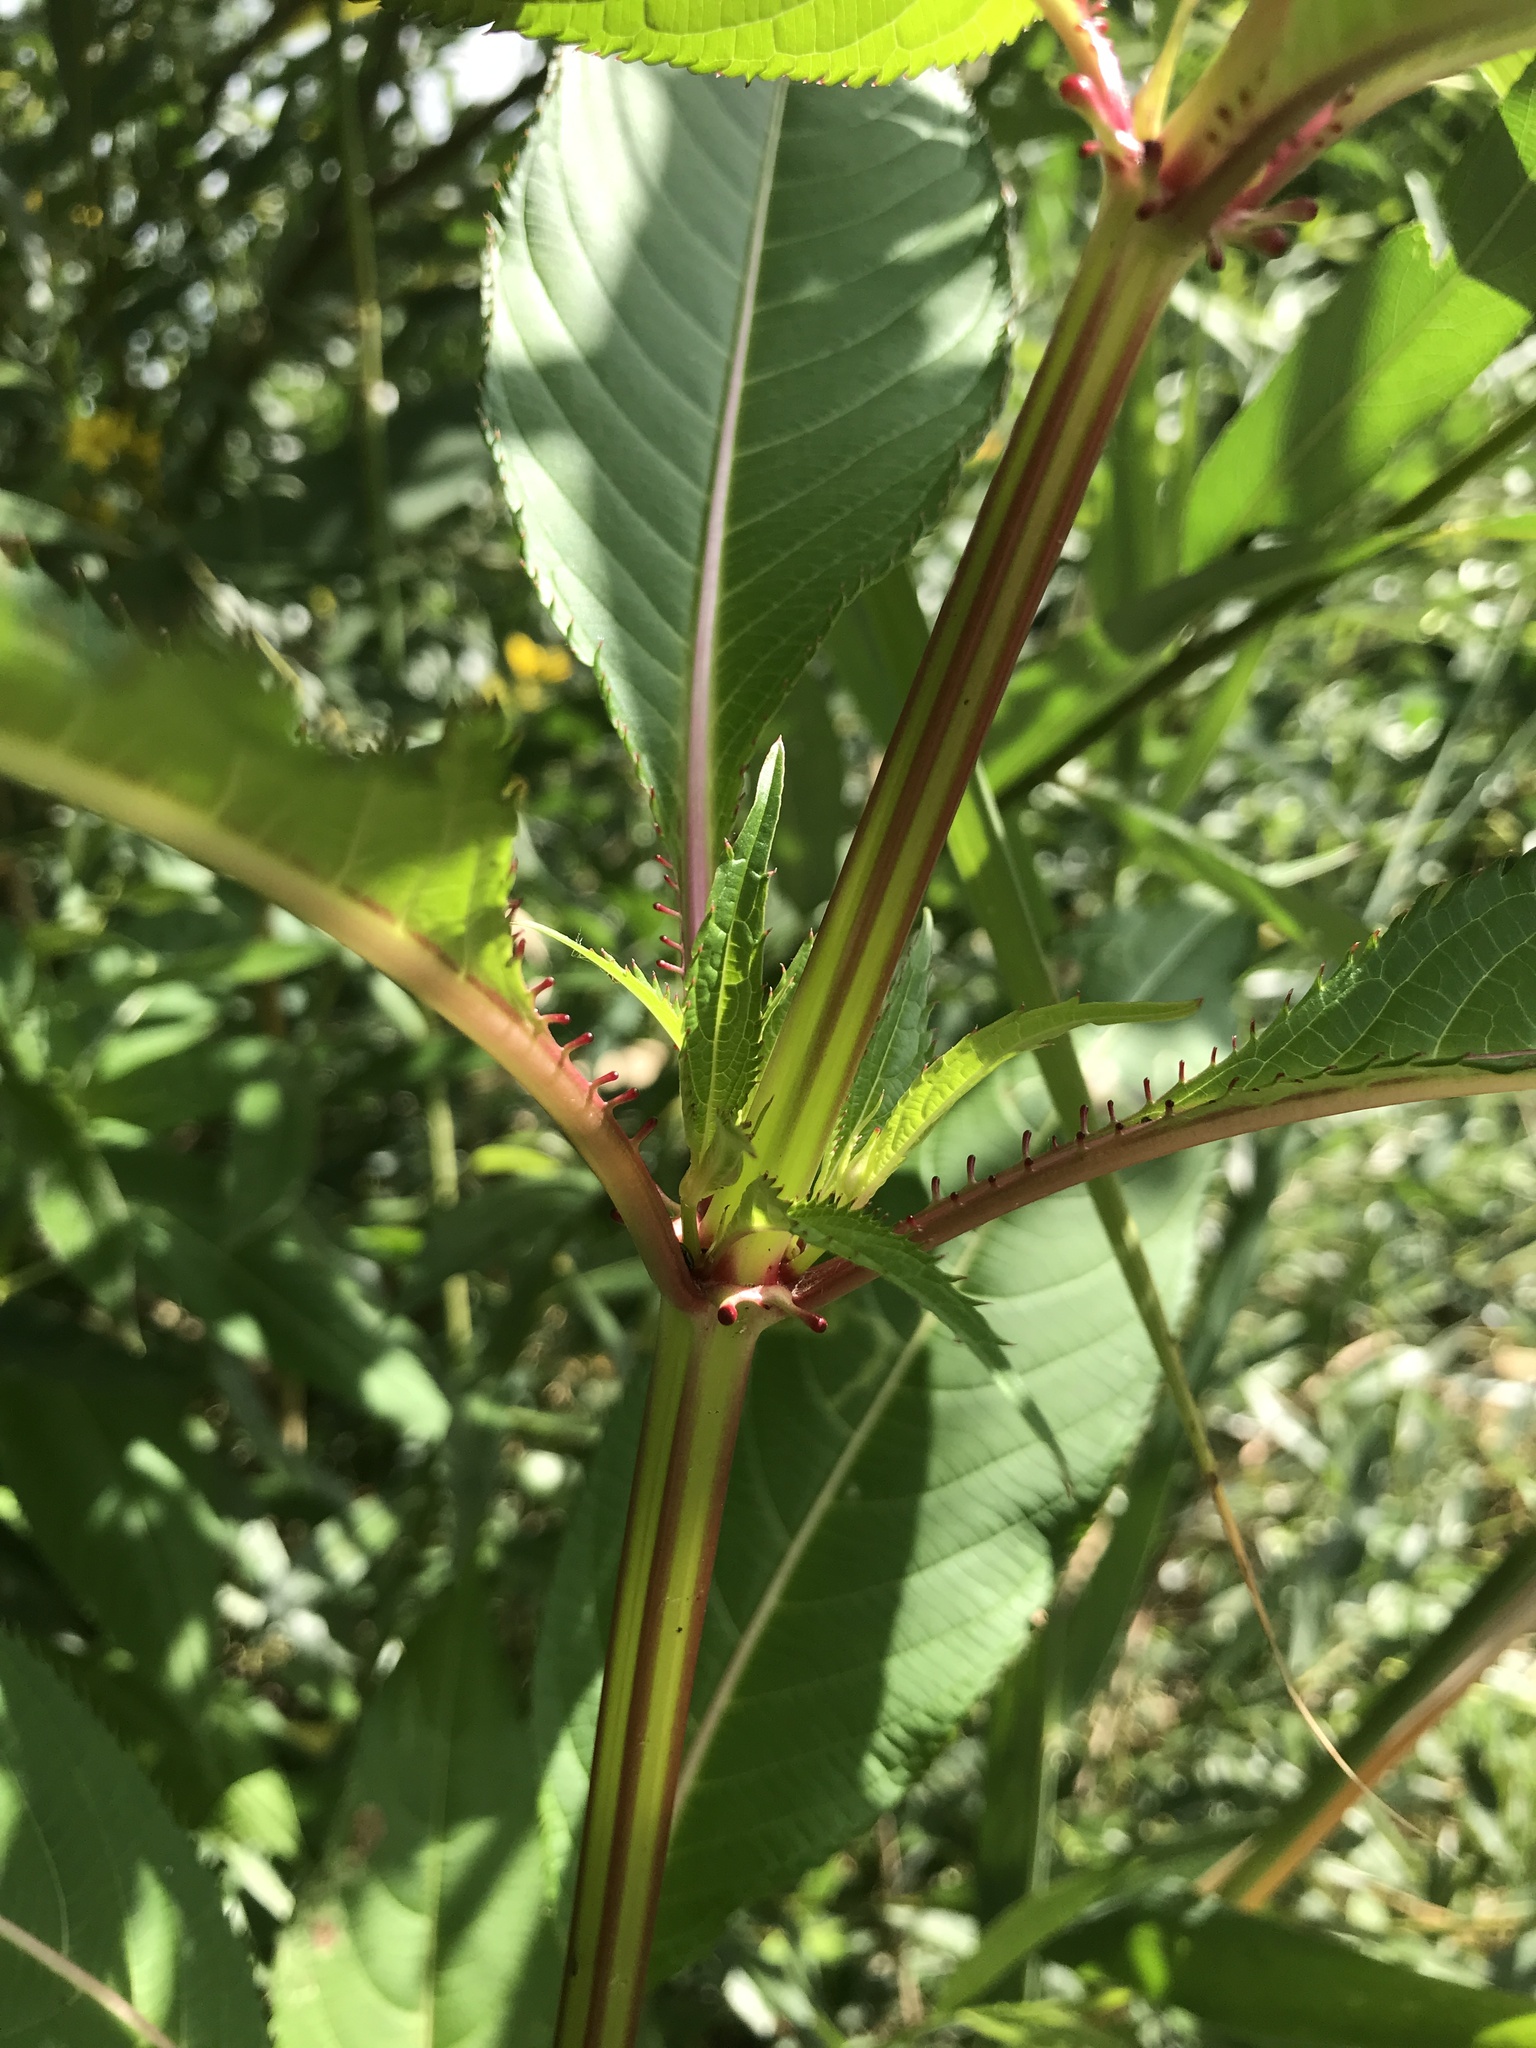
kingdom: Plantae
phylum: Tracheophyta
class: Magnoliopsida
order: Ericales
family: Balsaminaceae
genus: Impatiens
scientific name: Impatiens glandulifera
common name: Himalayan balsam
